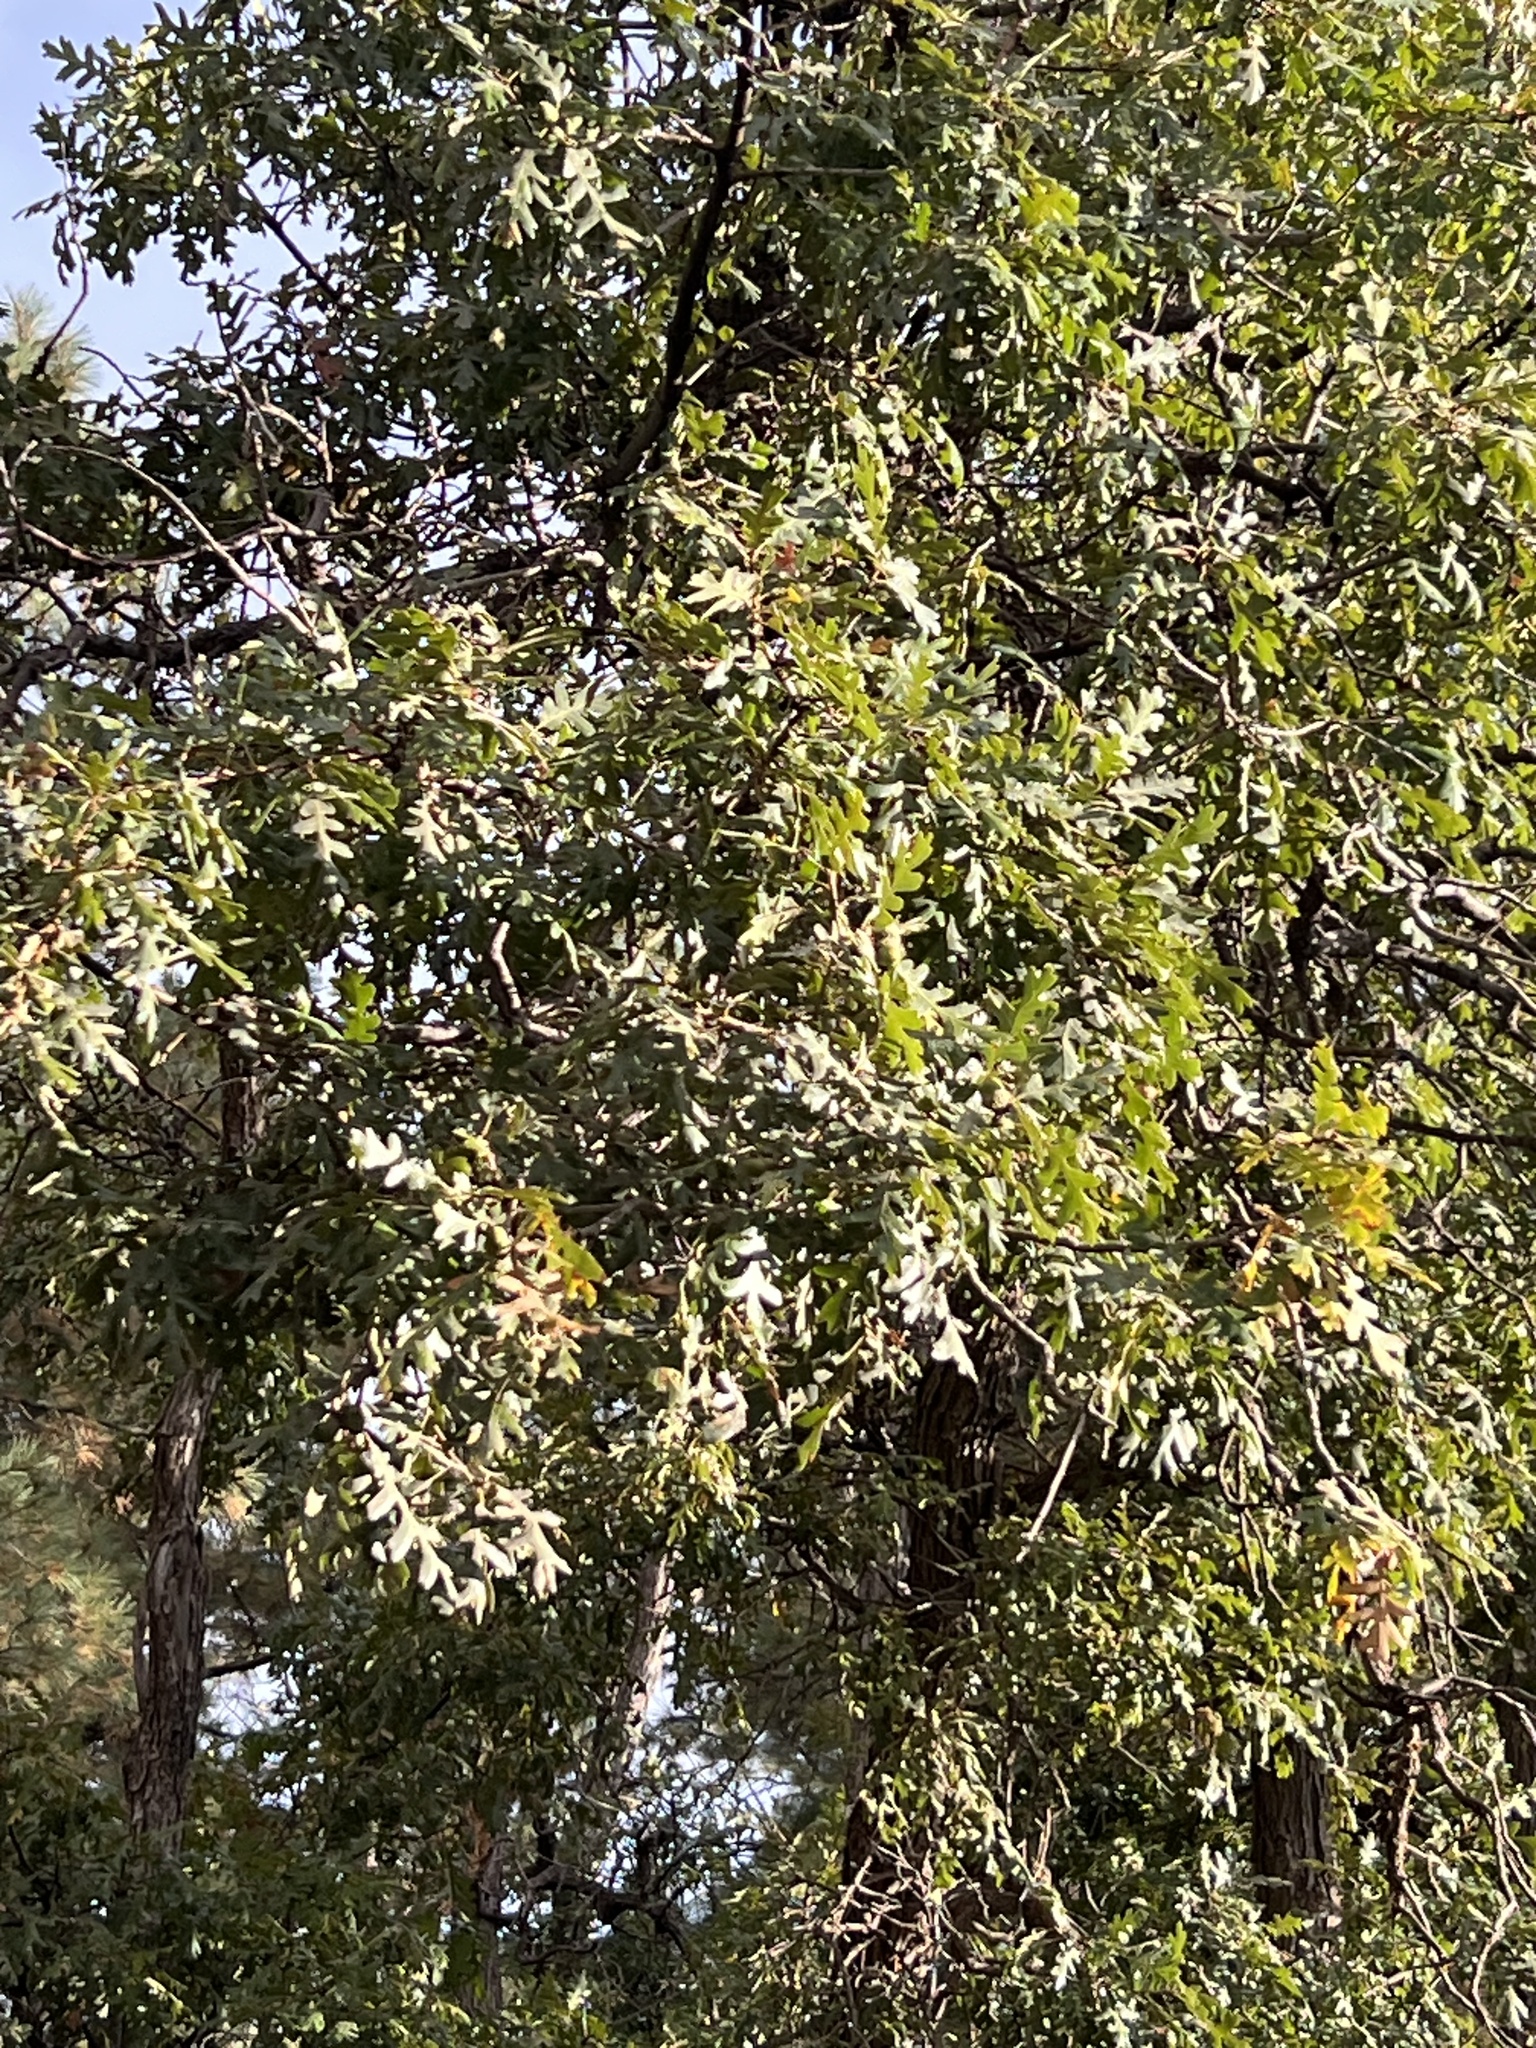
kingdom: Plantae
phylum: Tracheophyta
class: Magnoliopsida
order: Fagales
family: Fagaceae
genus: Quercus
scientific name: Quercus gambelii
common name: Gambel oak
